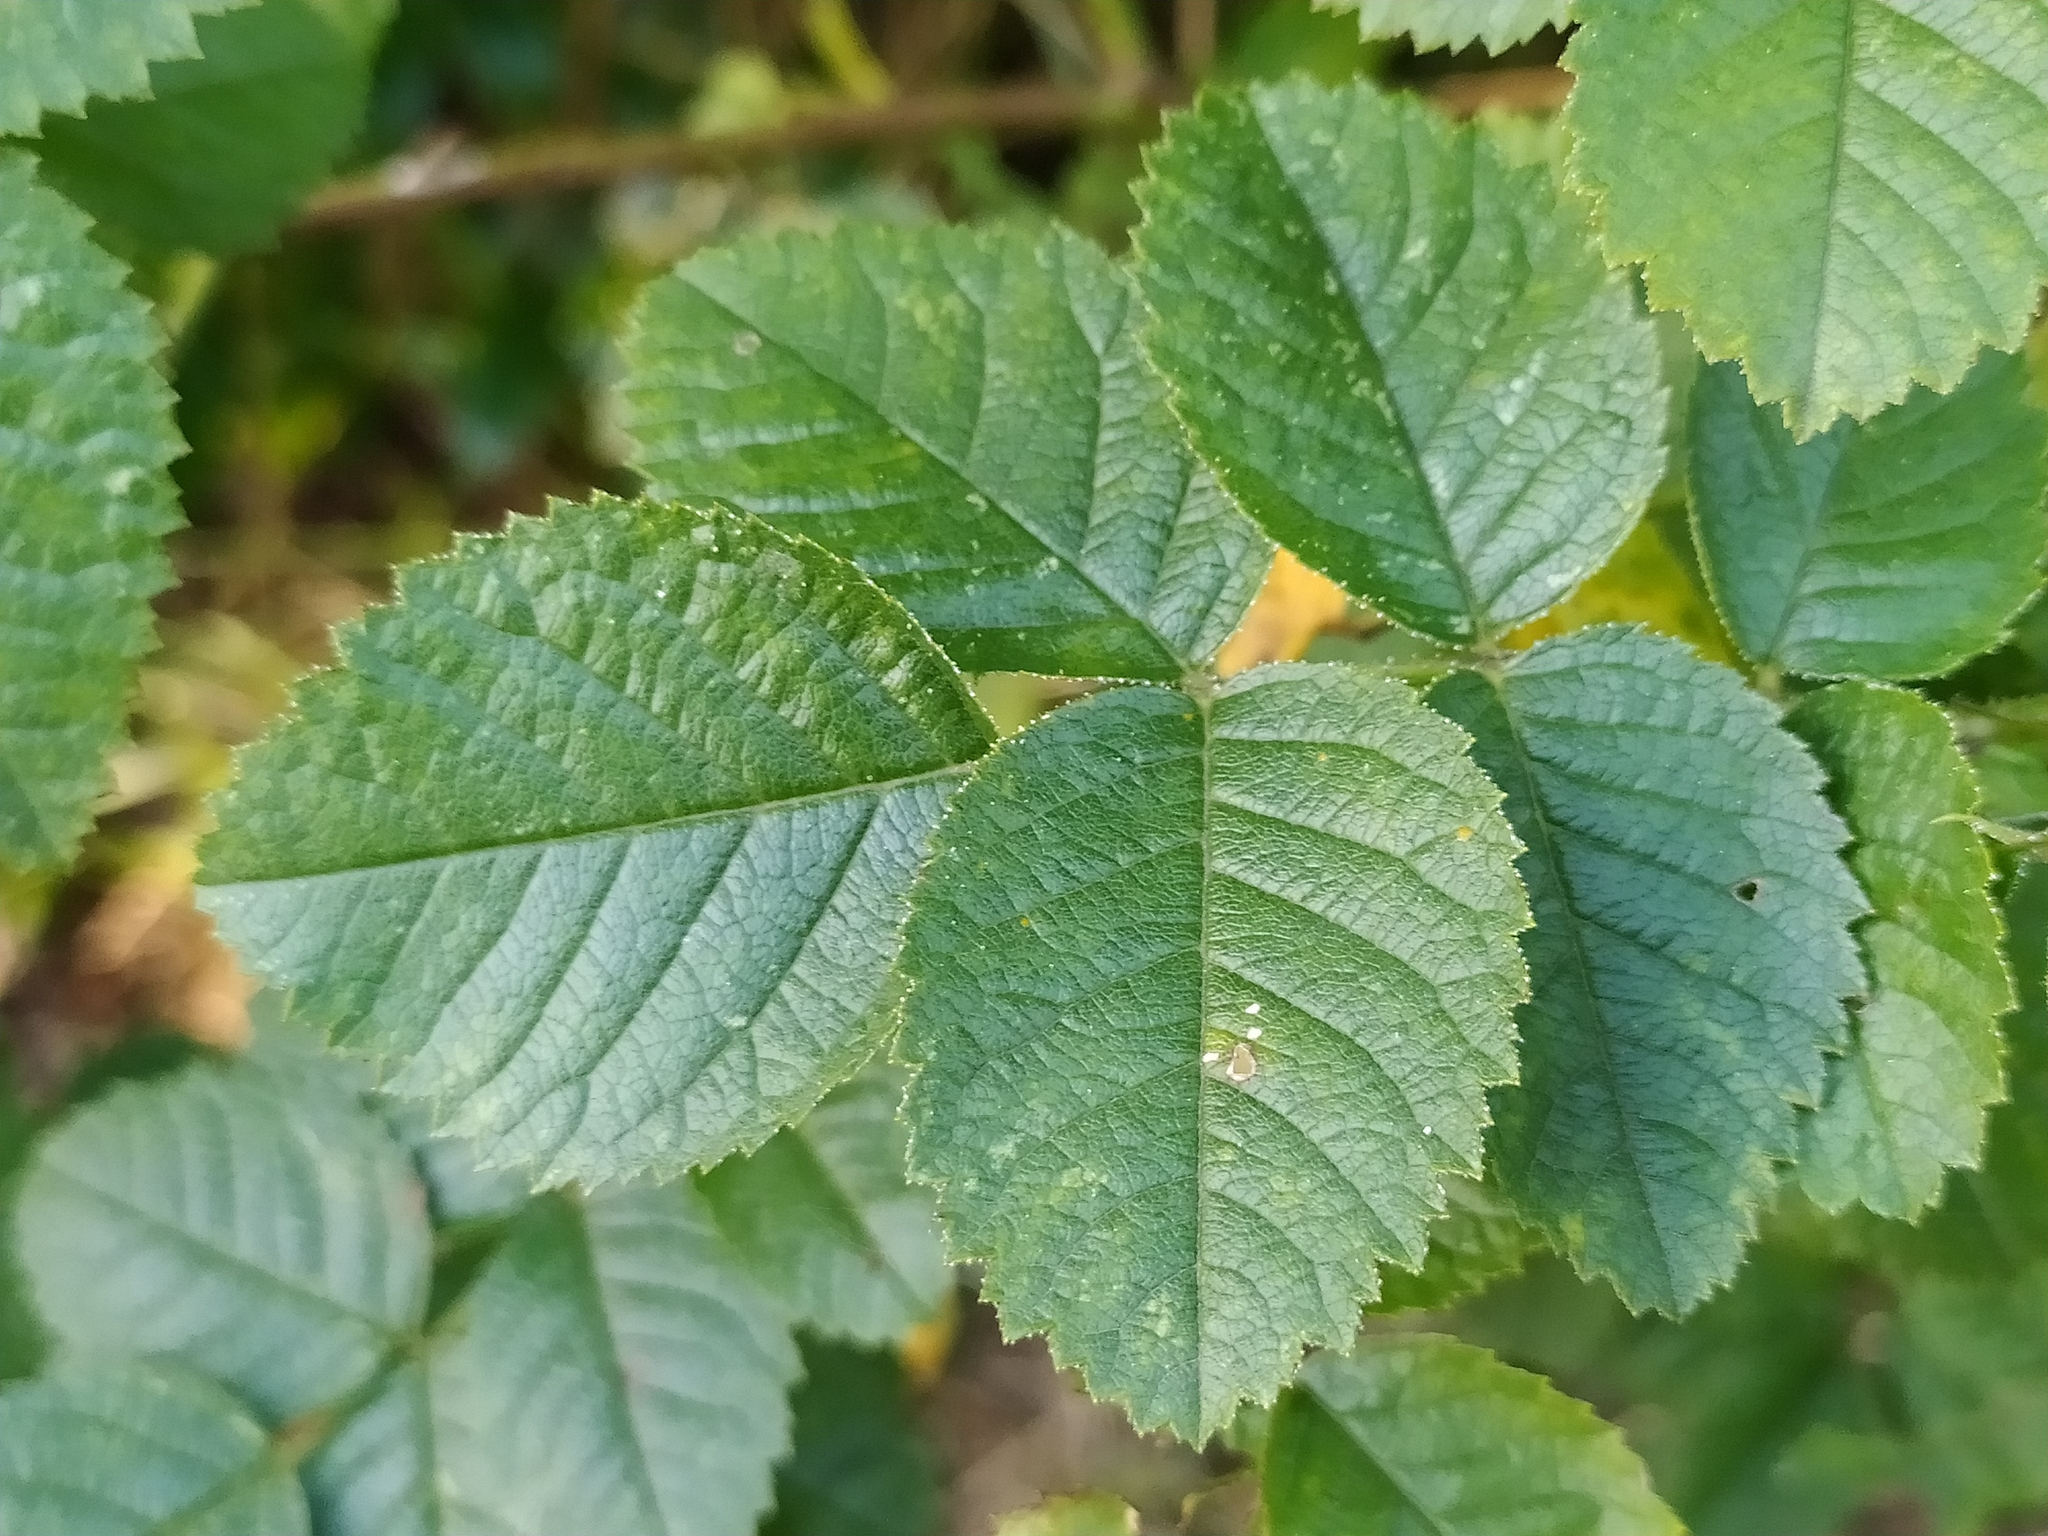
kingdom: Plantae
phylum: Tracheophyta
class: Magnoliopsida
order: Rosales
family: Rosaceae
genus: Rosa
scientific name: Rosa rubiginosa
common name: Sweet-briar
